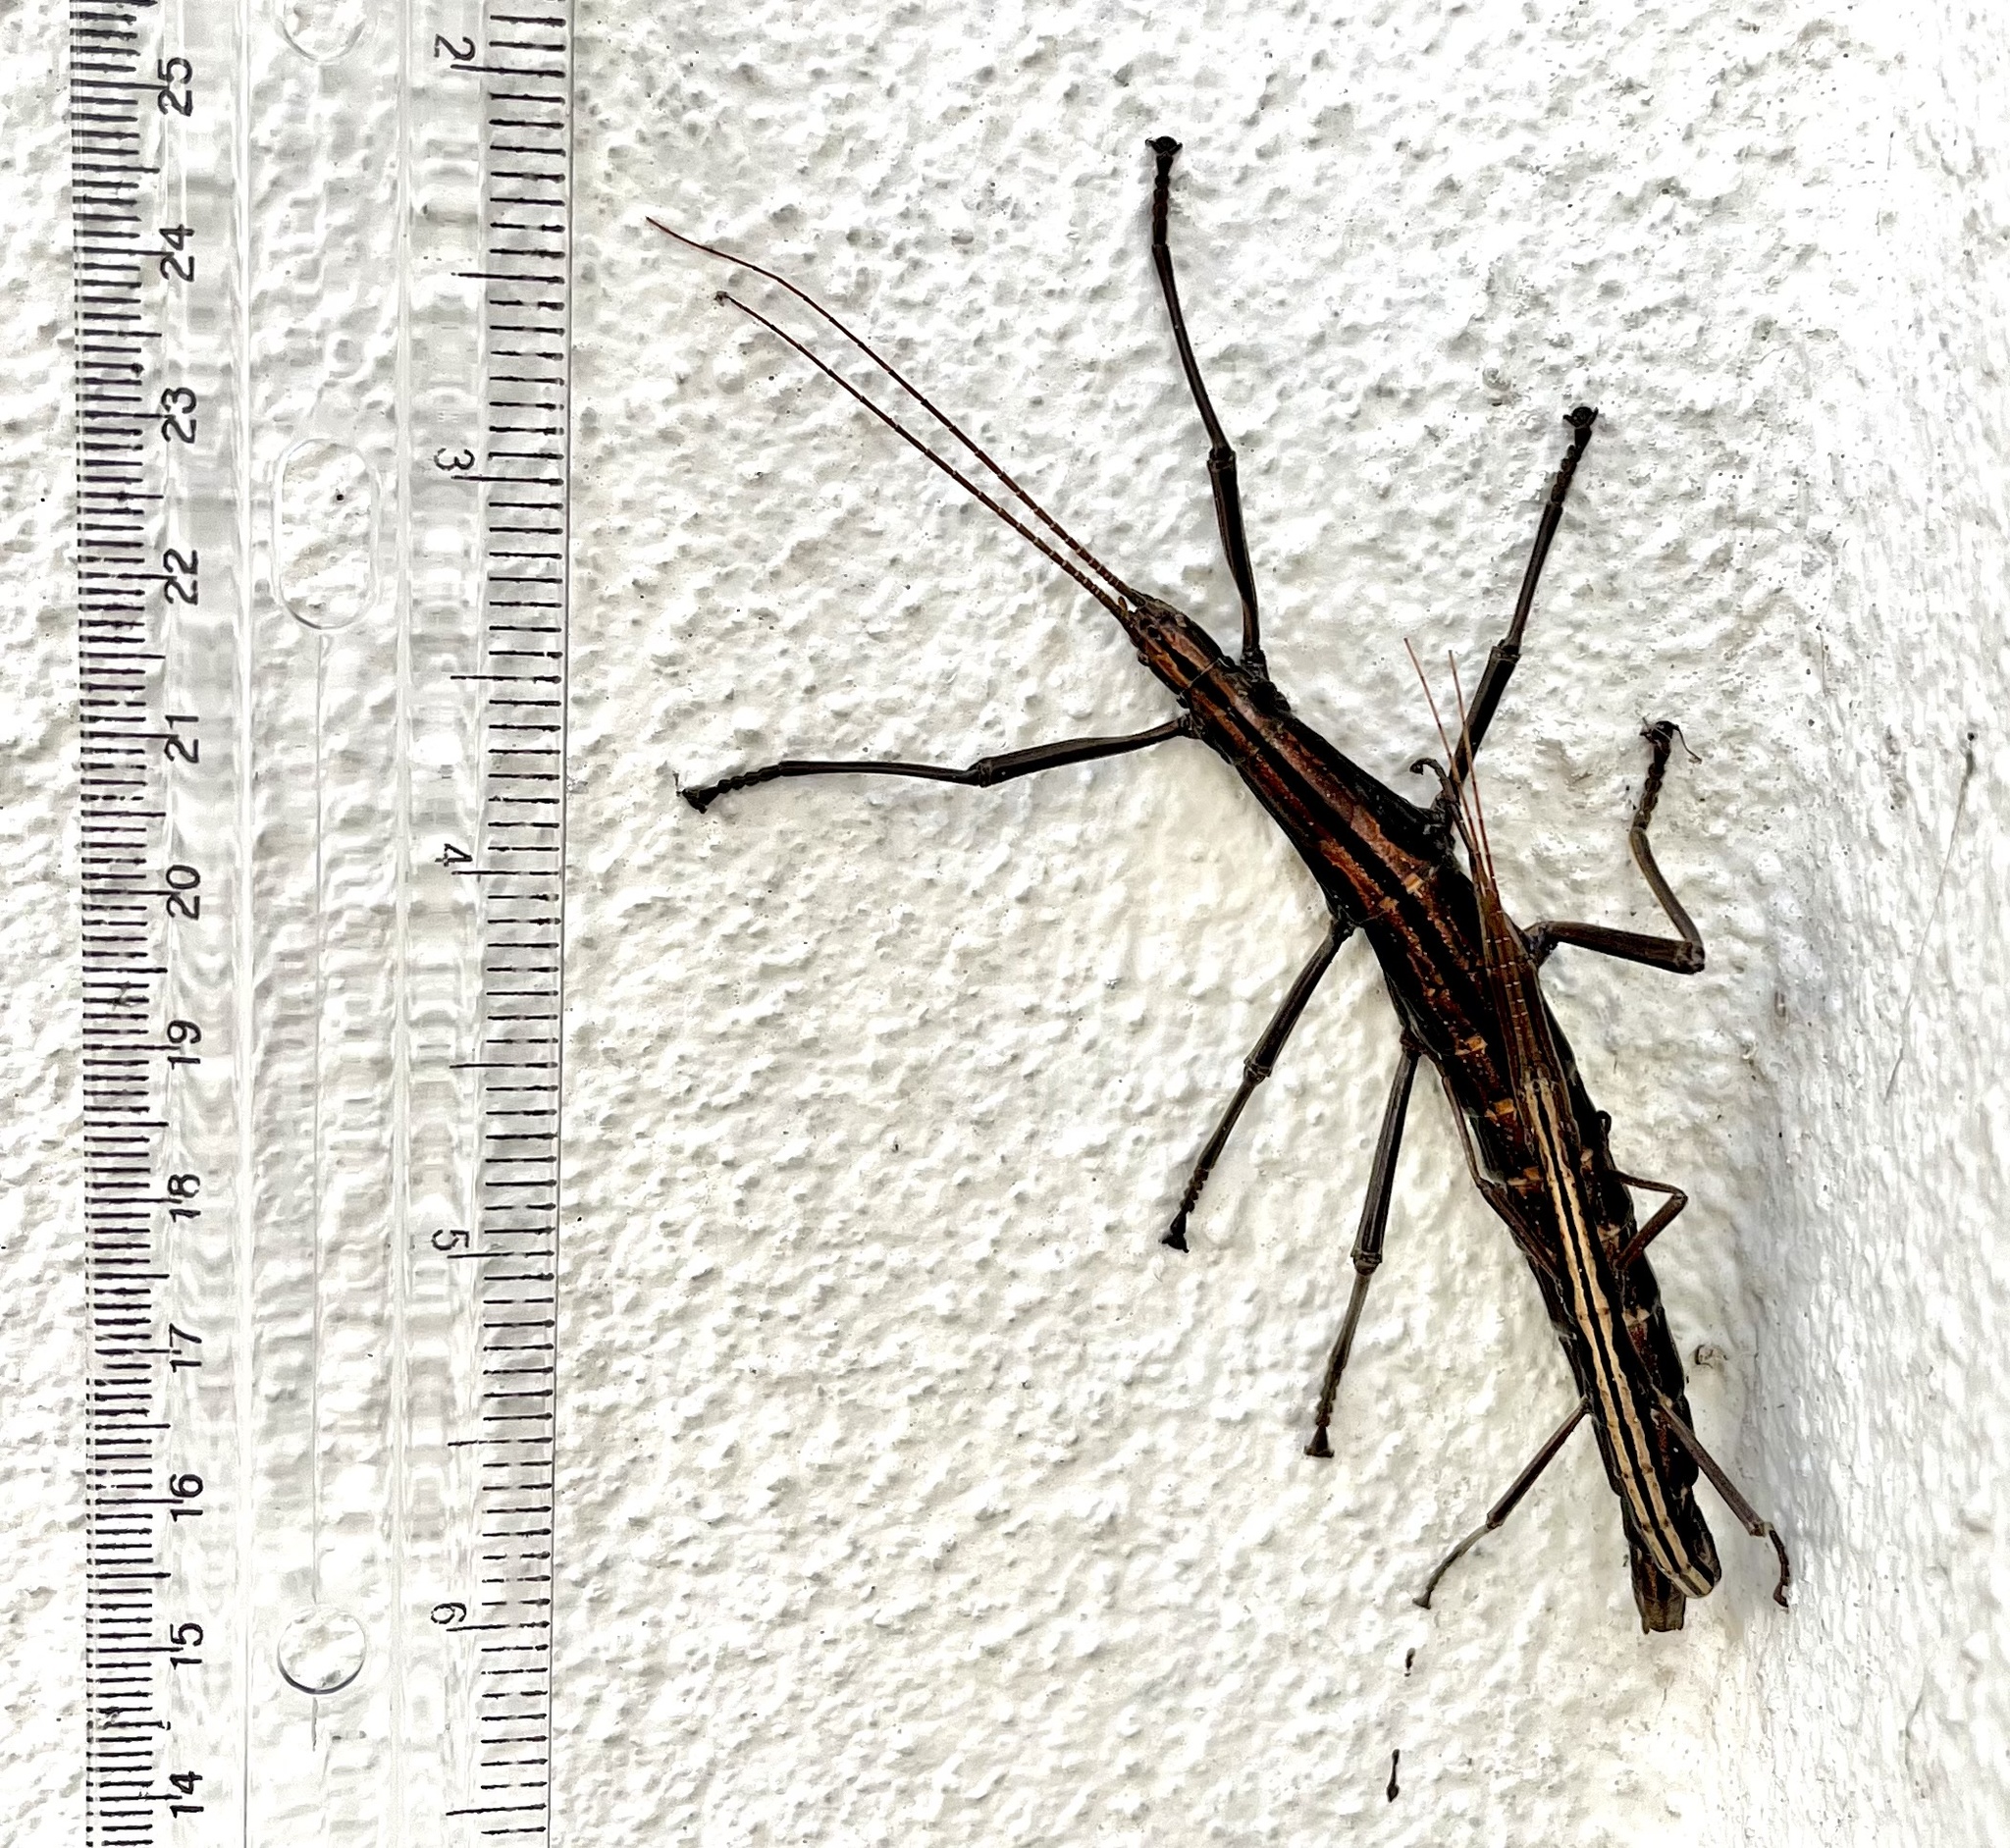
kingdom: Animalia
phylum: Arthropoda
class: Insecta
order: Phasmida
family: Pseudophasmatidae
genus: Anisomorpha
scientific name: Anisomorpha buprestoides
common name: Florida stick insect
